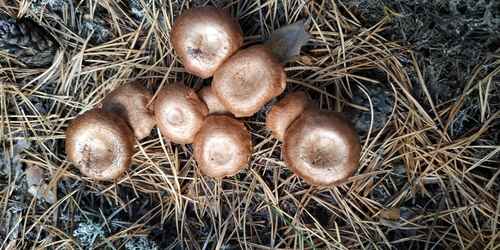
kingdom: Fungi
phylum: Basidiomycota
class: Agaricomycetes
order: Agaricales
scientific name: Agaricales
